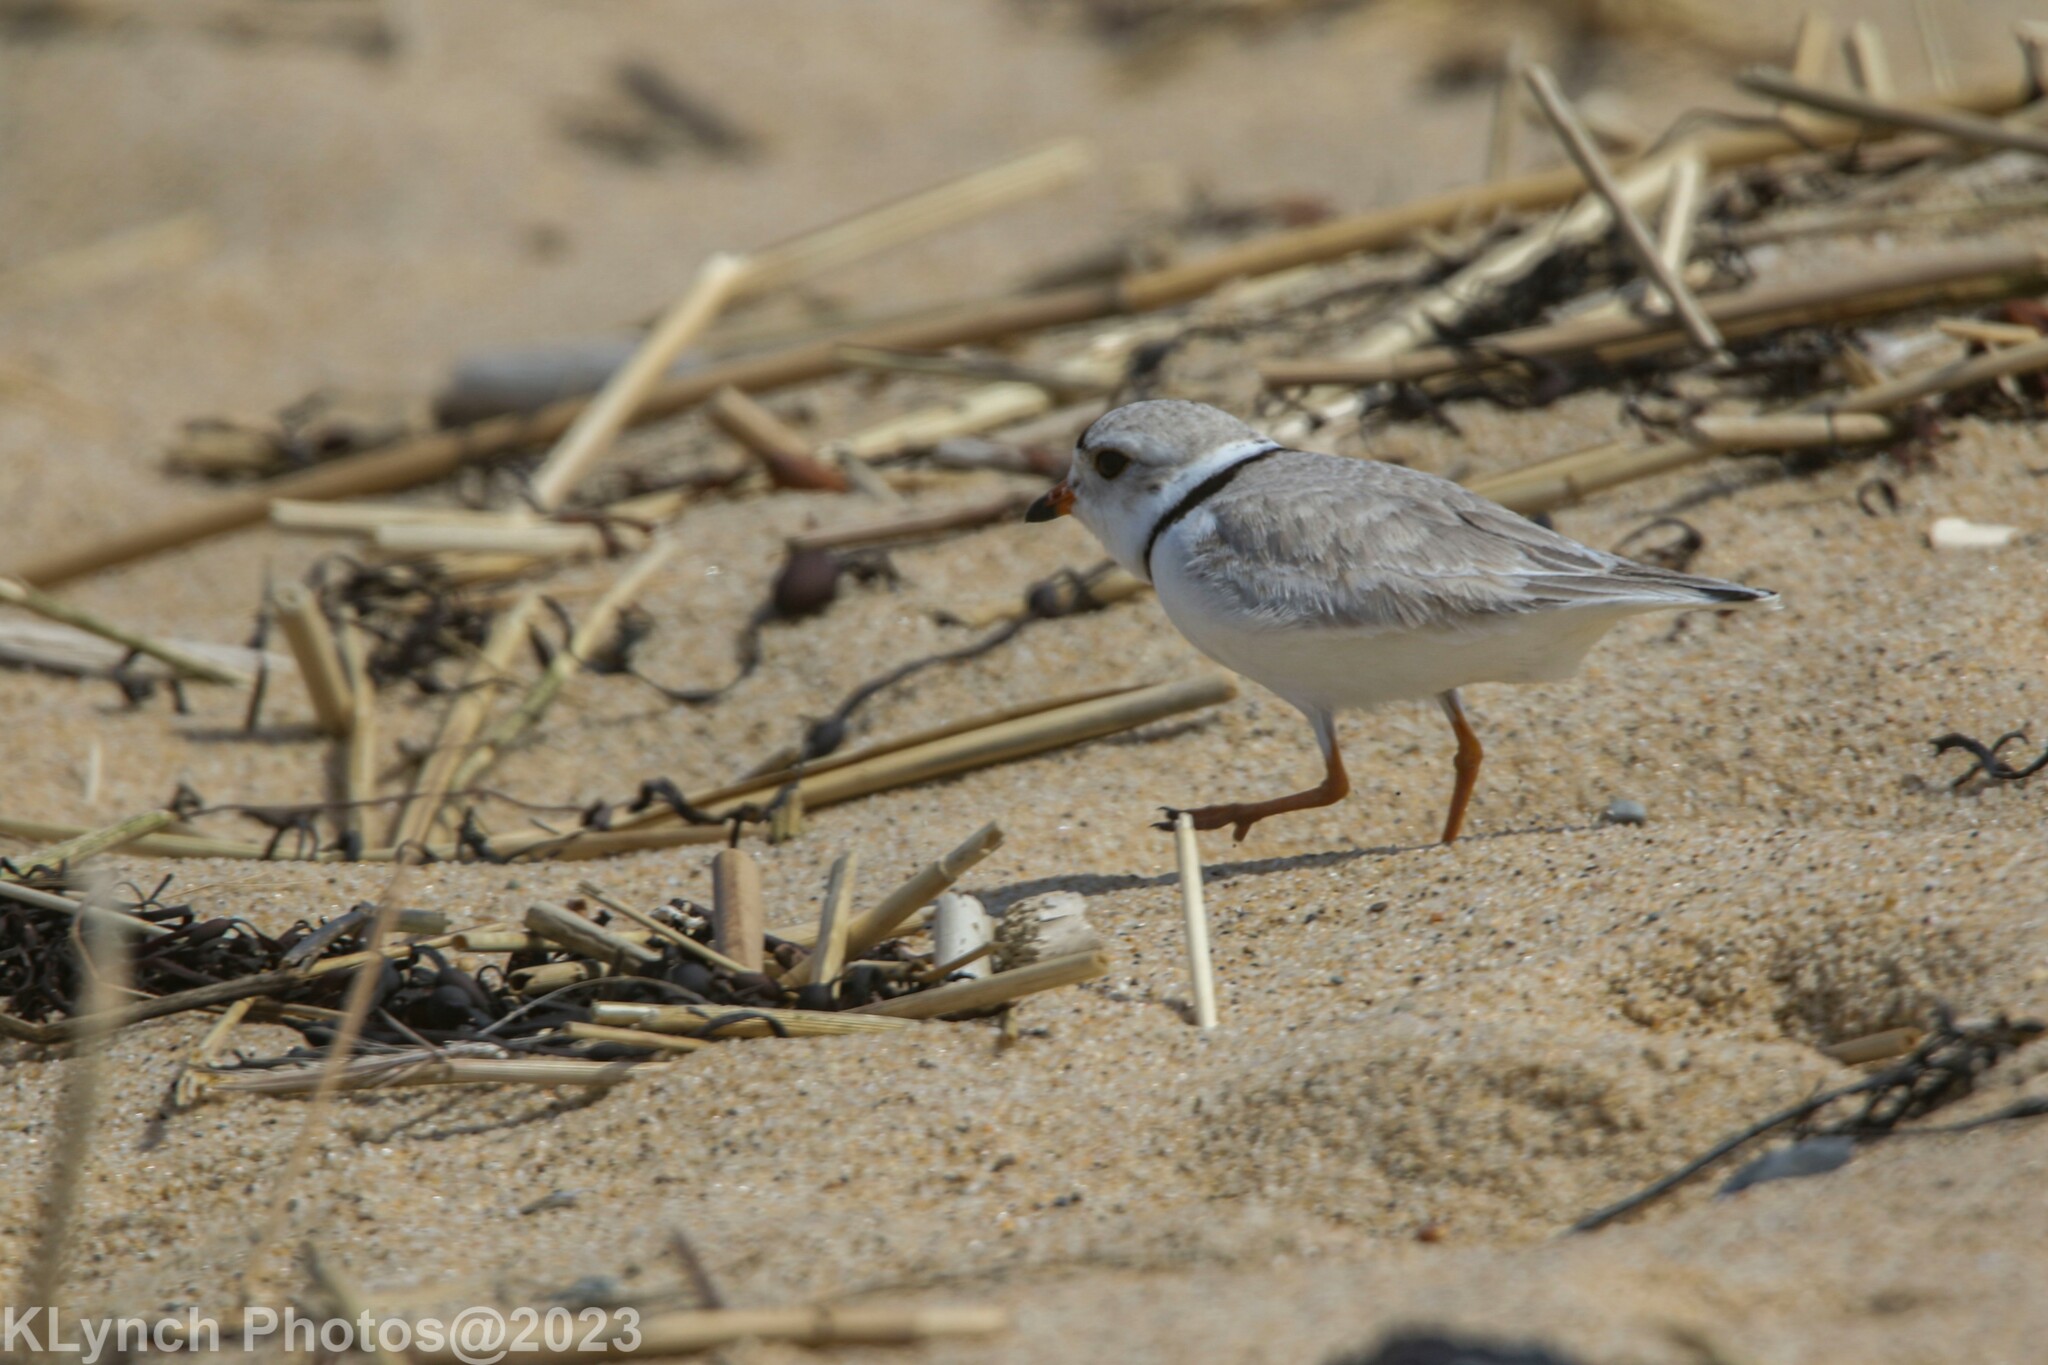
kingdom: Animalia
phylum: Chordata
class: Aves
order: Charadriiformes
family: Charadriidae
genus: Charadrius
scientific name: Charadrius melodus
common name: Piping plover
